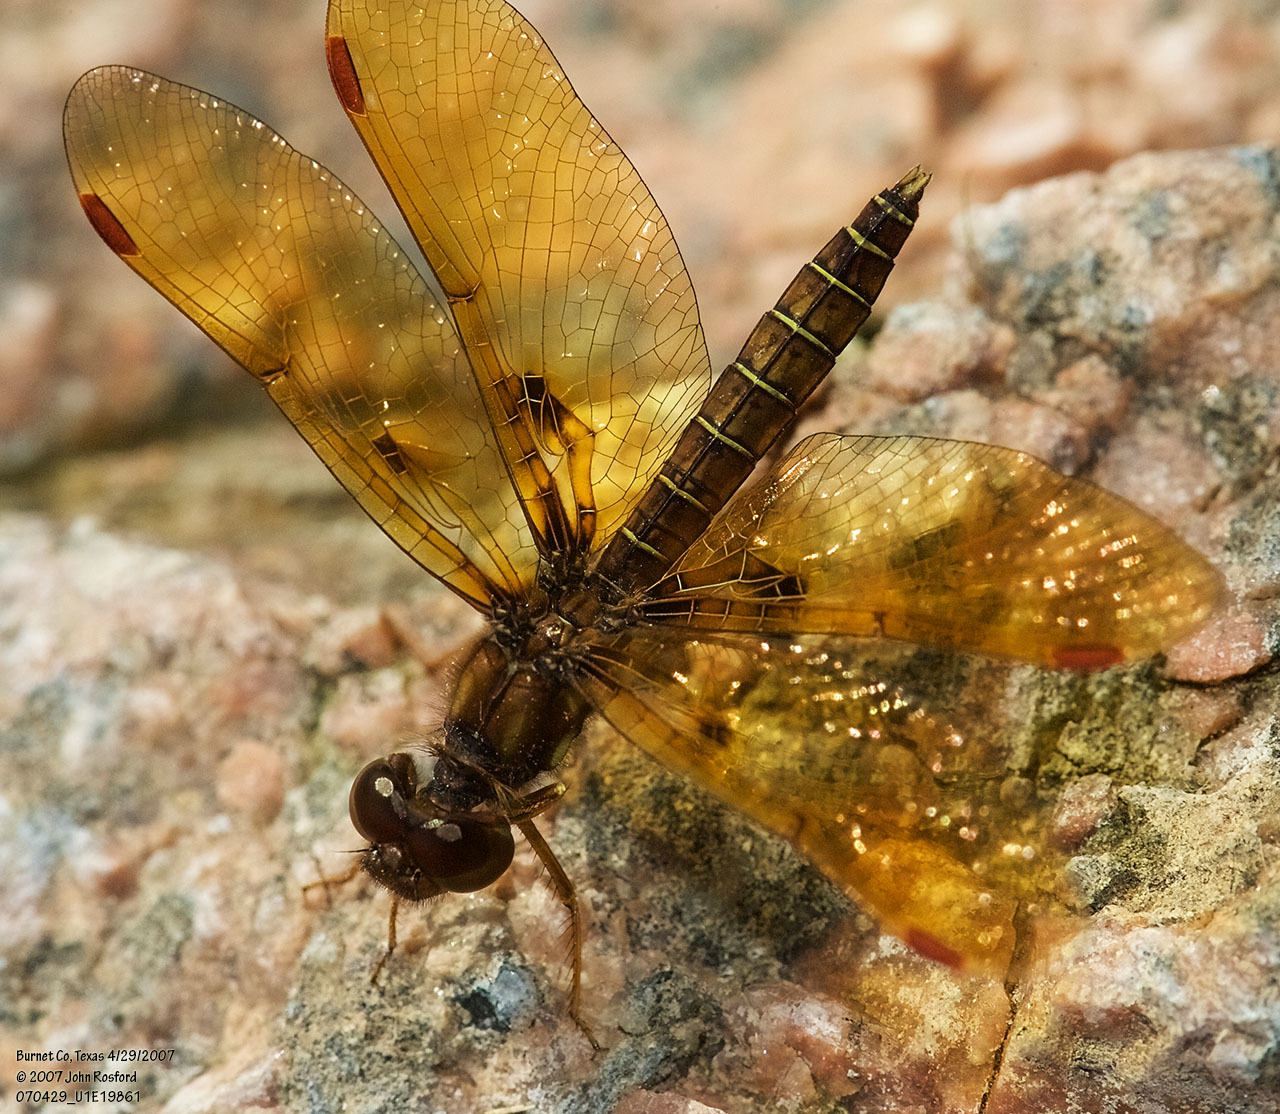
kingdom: Animalia
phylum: Arthropoda
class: Insecta
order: Odonata
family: Libellulidae
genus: Perithemis
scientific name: Perithemis tenera
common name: Eastern amberwing
